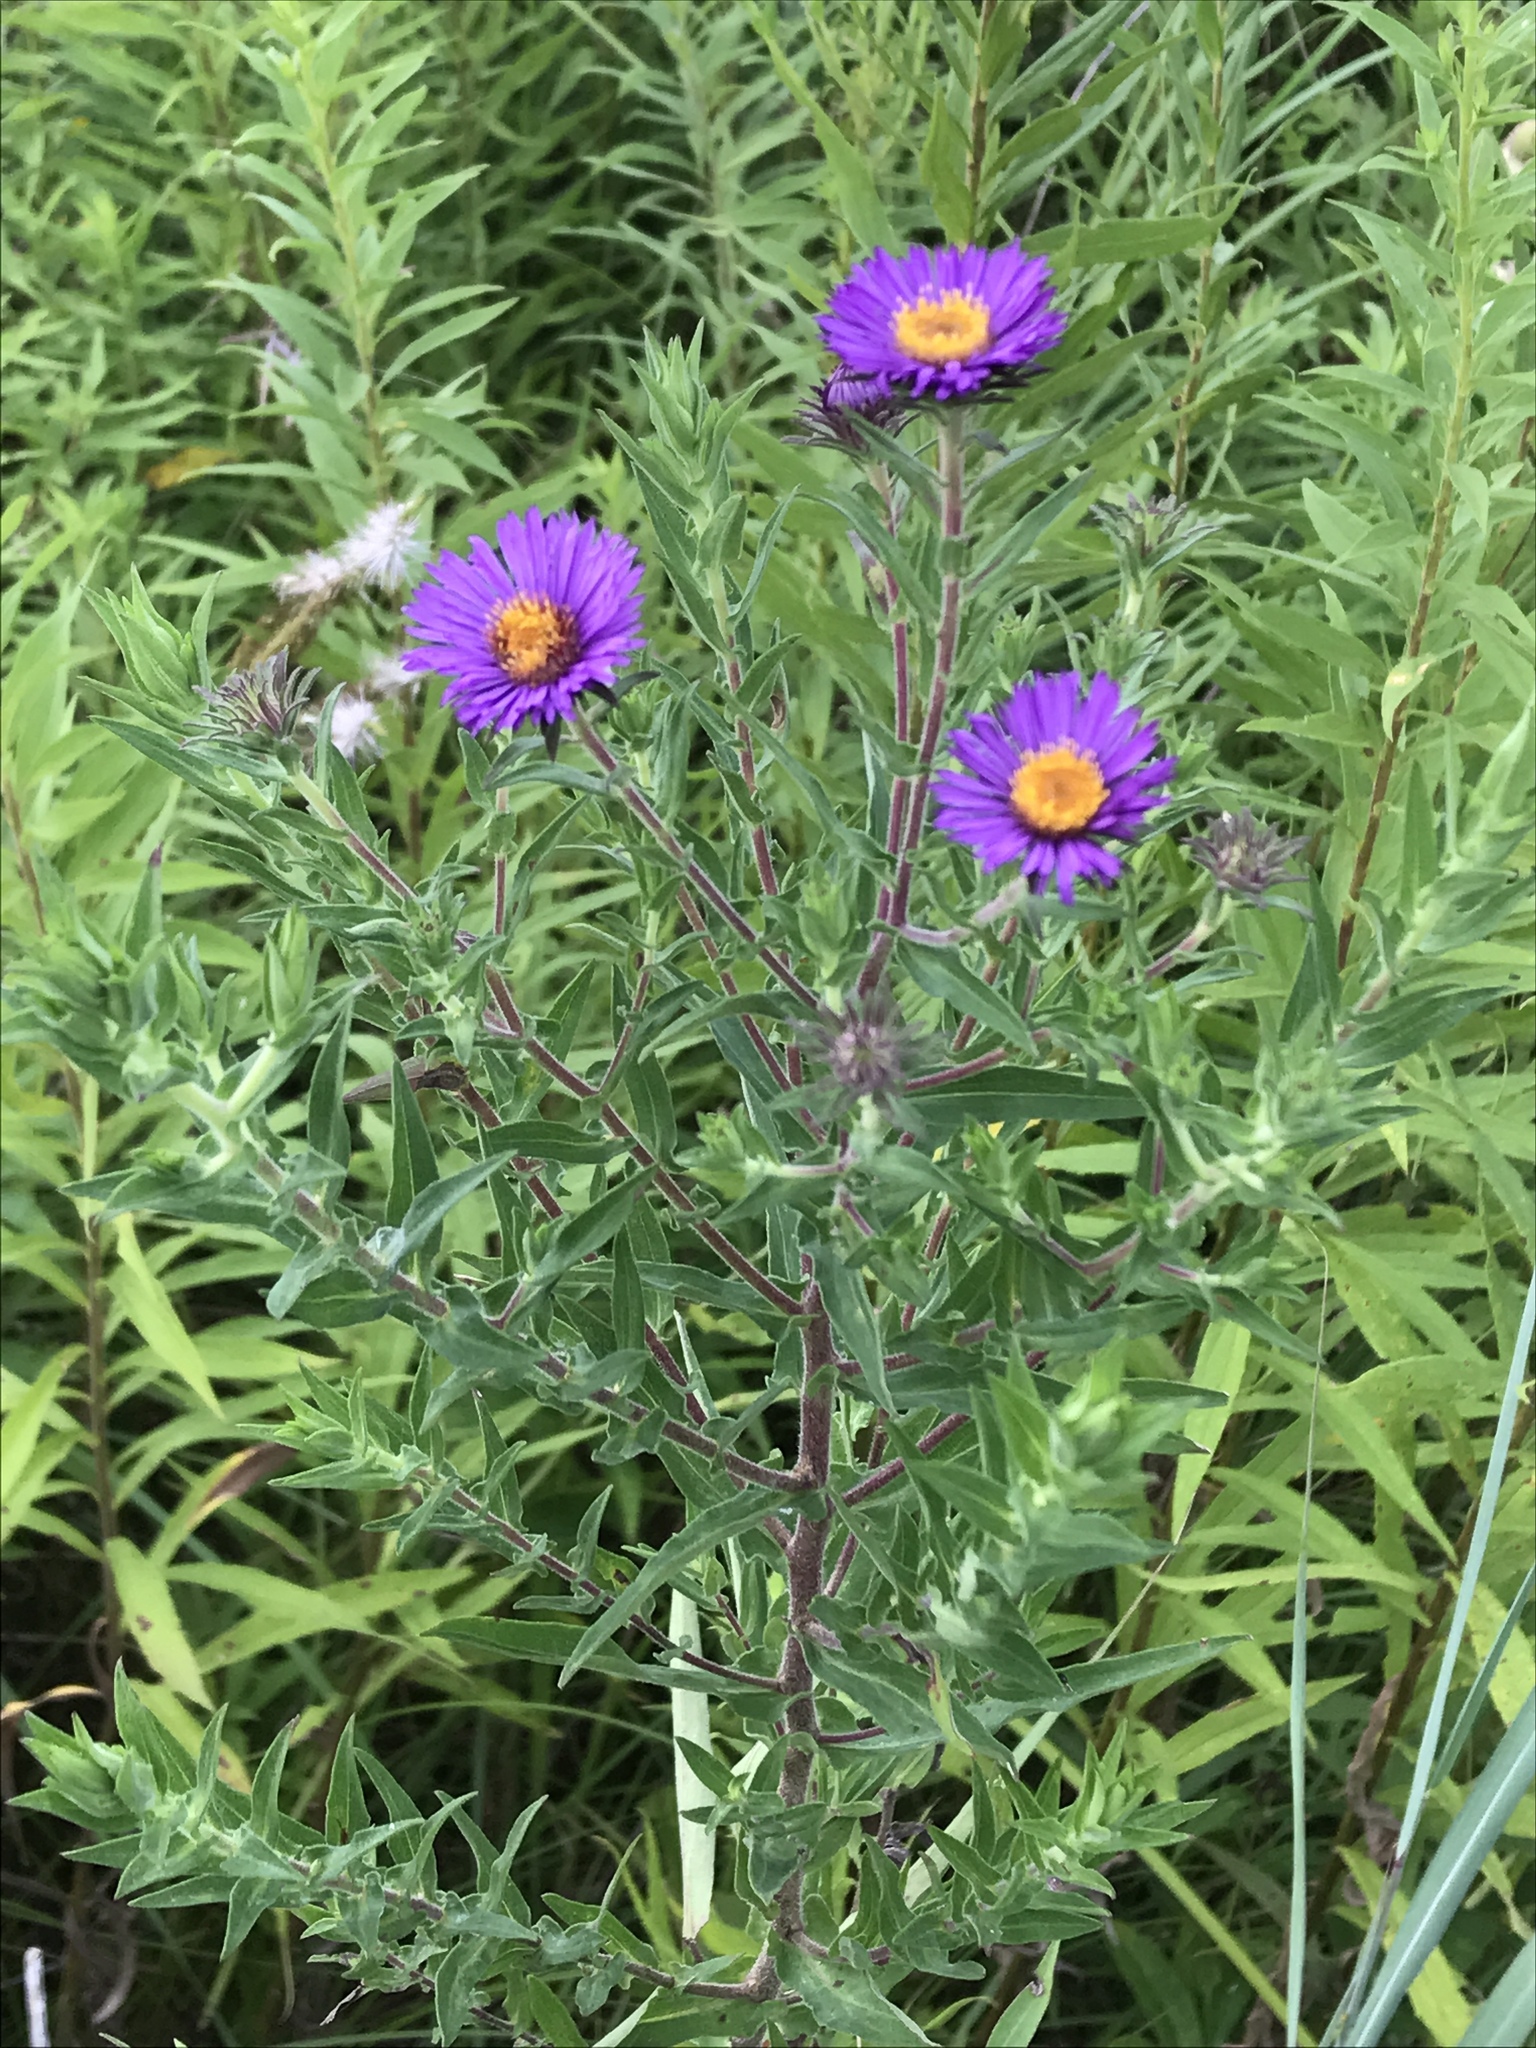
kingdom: Plantae
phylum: Tracheophyta
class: Magnoliopsida
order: Asterales
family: Asteraceae
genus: Symphyotrichum
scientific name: Symphyotrichum novae-angliae
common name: Michaelmas daisy
